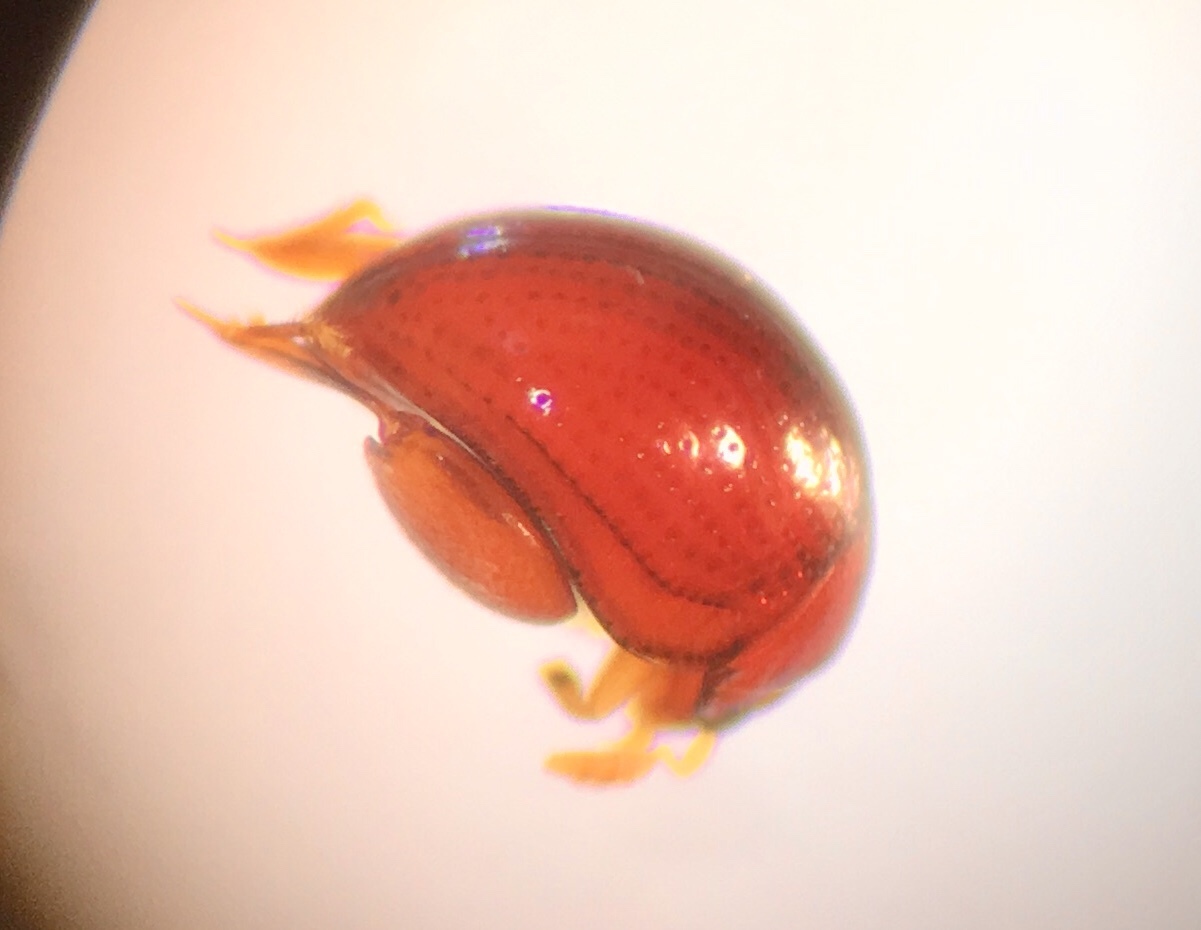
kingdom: Animalia
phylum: Arthropoda
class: Insecta
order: Coleoptera
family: Chrysomelidae
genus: Clavicornaltica
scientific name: Clavicornaltica belalongensis
